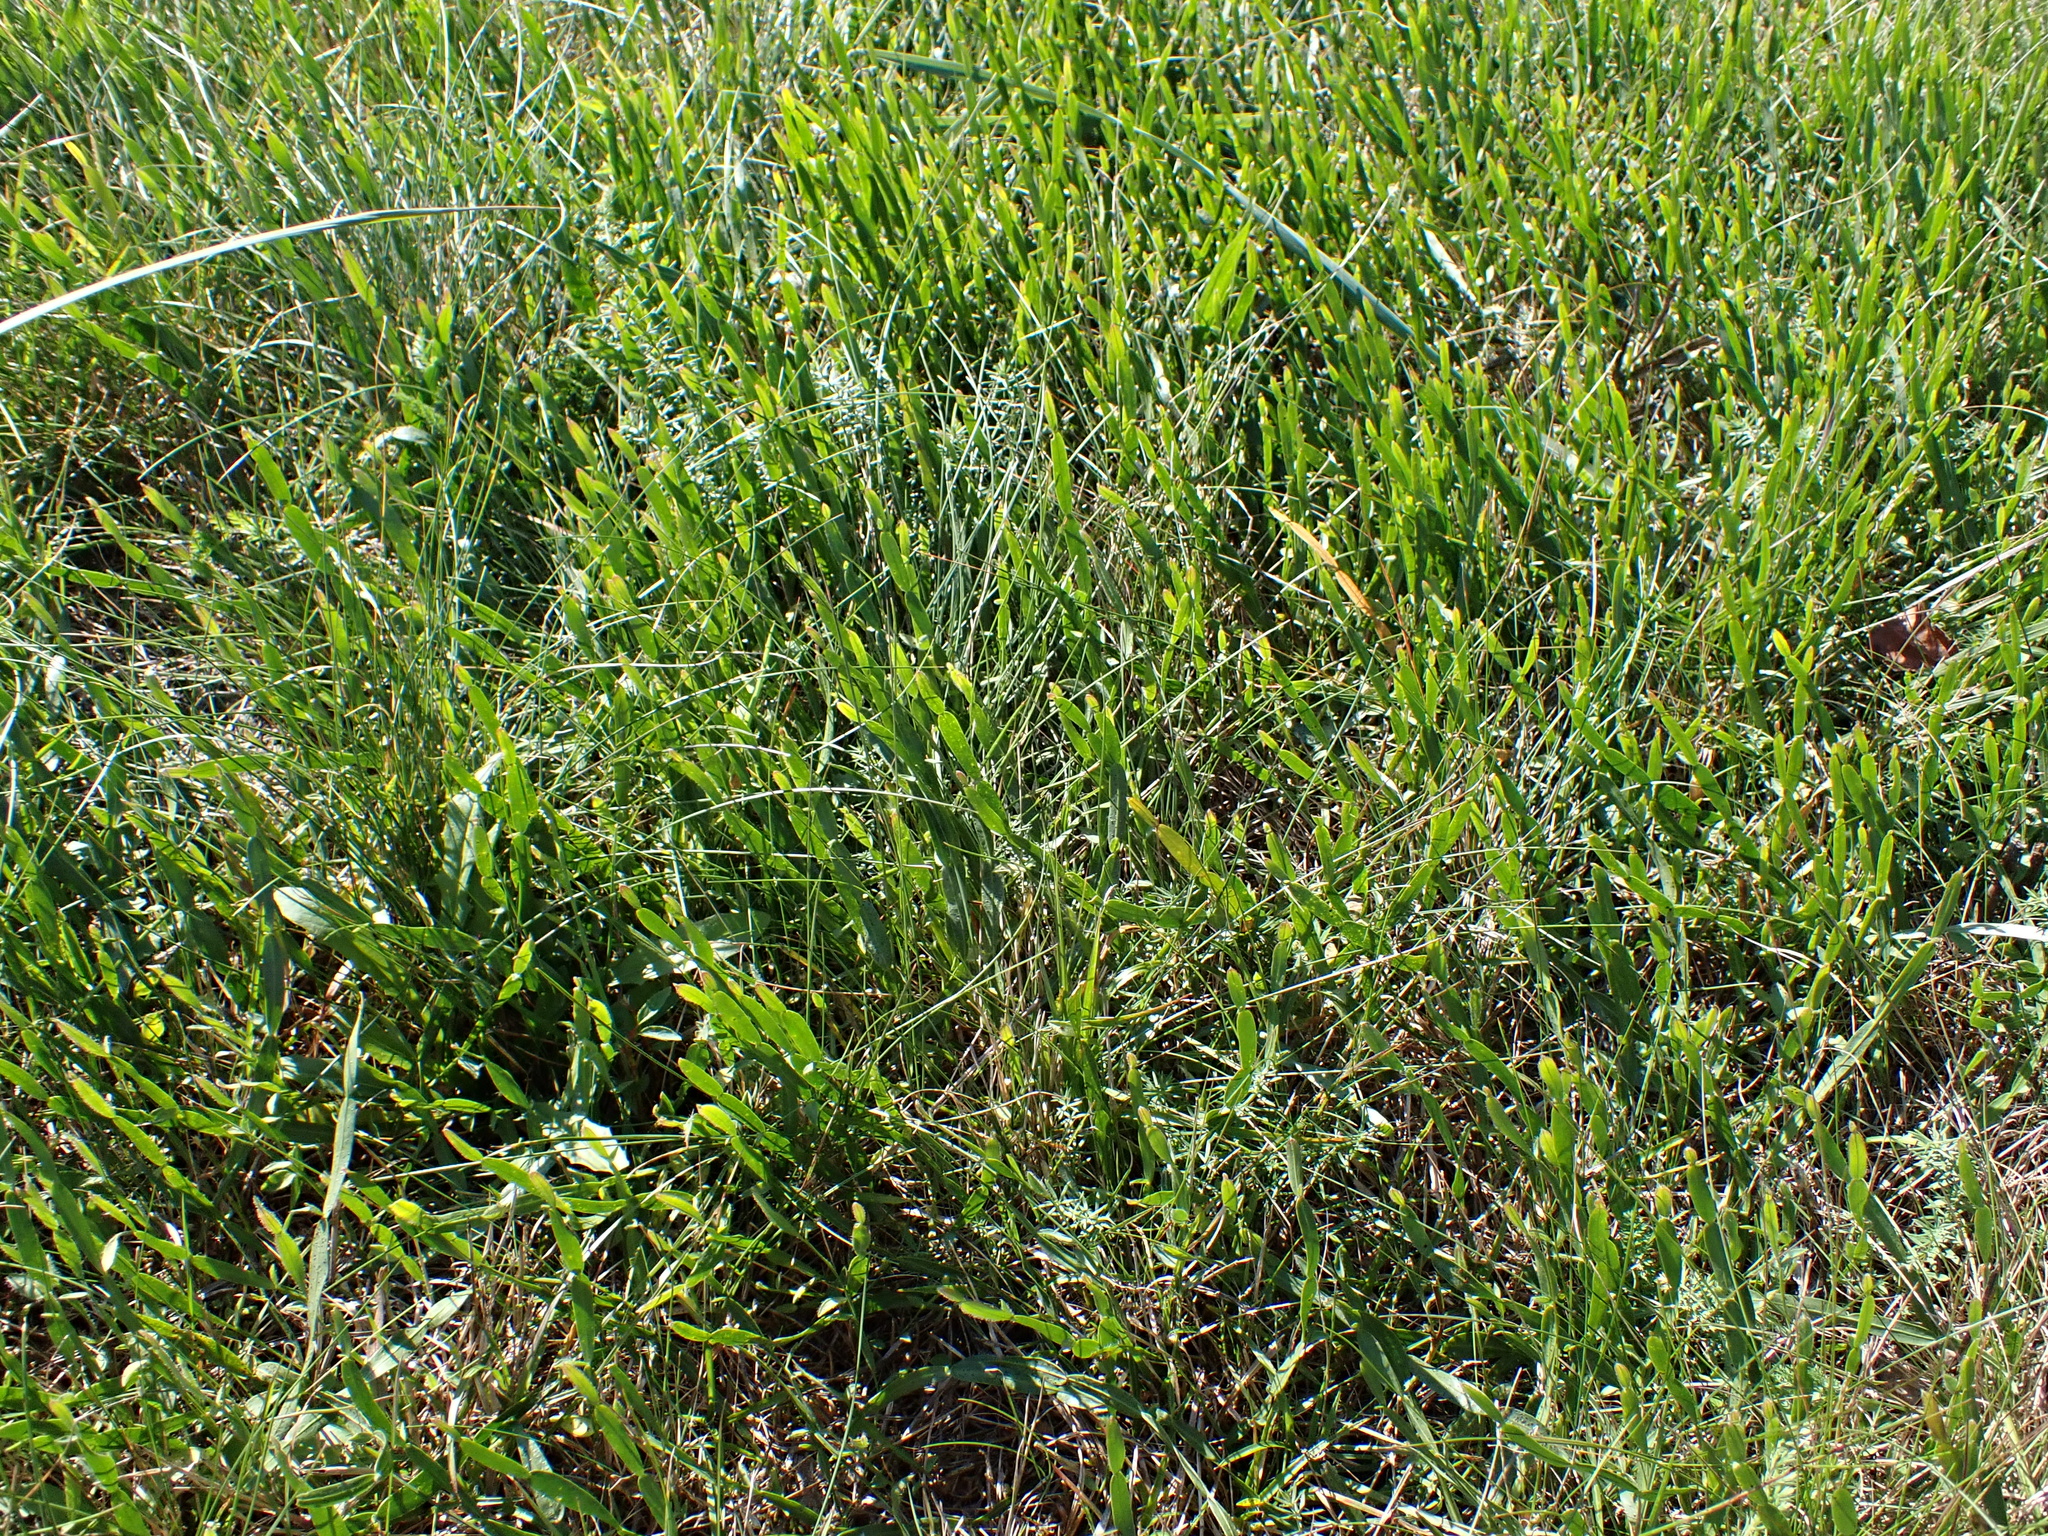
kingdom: Plantae
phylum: Tracheophyta
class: Magnoliopsida
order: Fabales
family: Fabaceae
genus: Genista
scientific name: Genista sagittalis
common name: Winged greenweed
